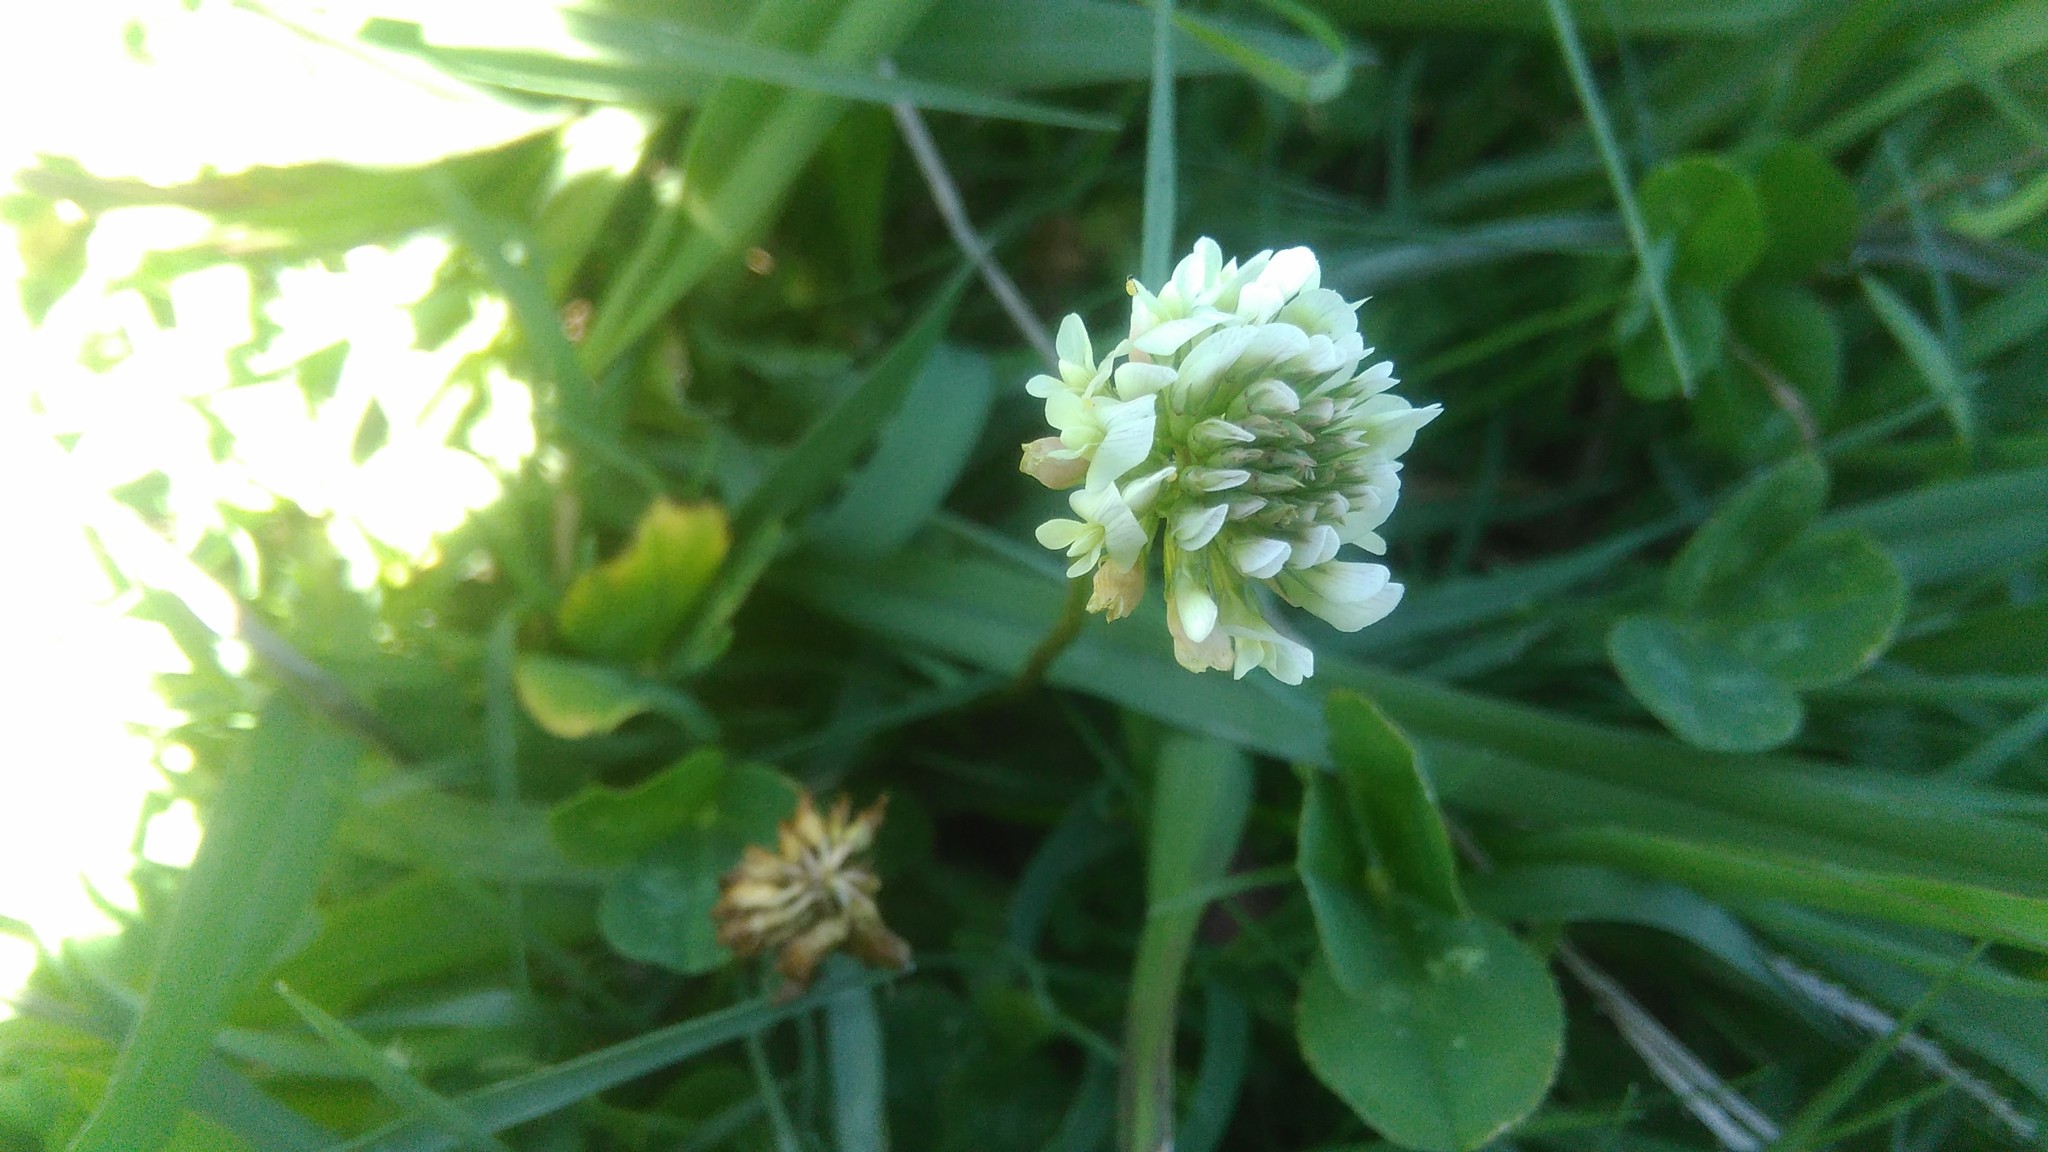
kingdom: Plantae
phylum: Tracheophyta
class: Magnoliopsida
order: Fabales
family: Fabaceae
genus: Trifolium
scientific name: Trifolium repens
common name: White clover
